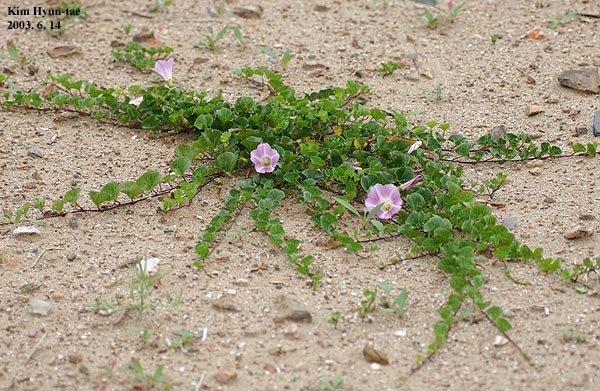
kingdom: Plantae
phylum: Tracheophyta
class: Magnoliopsida
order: Solanales
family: Convolvulaceae
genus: Calystegia
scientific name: Calystegia soldanella
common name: Sea bindweed
